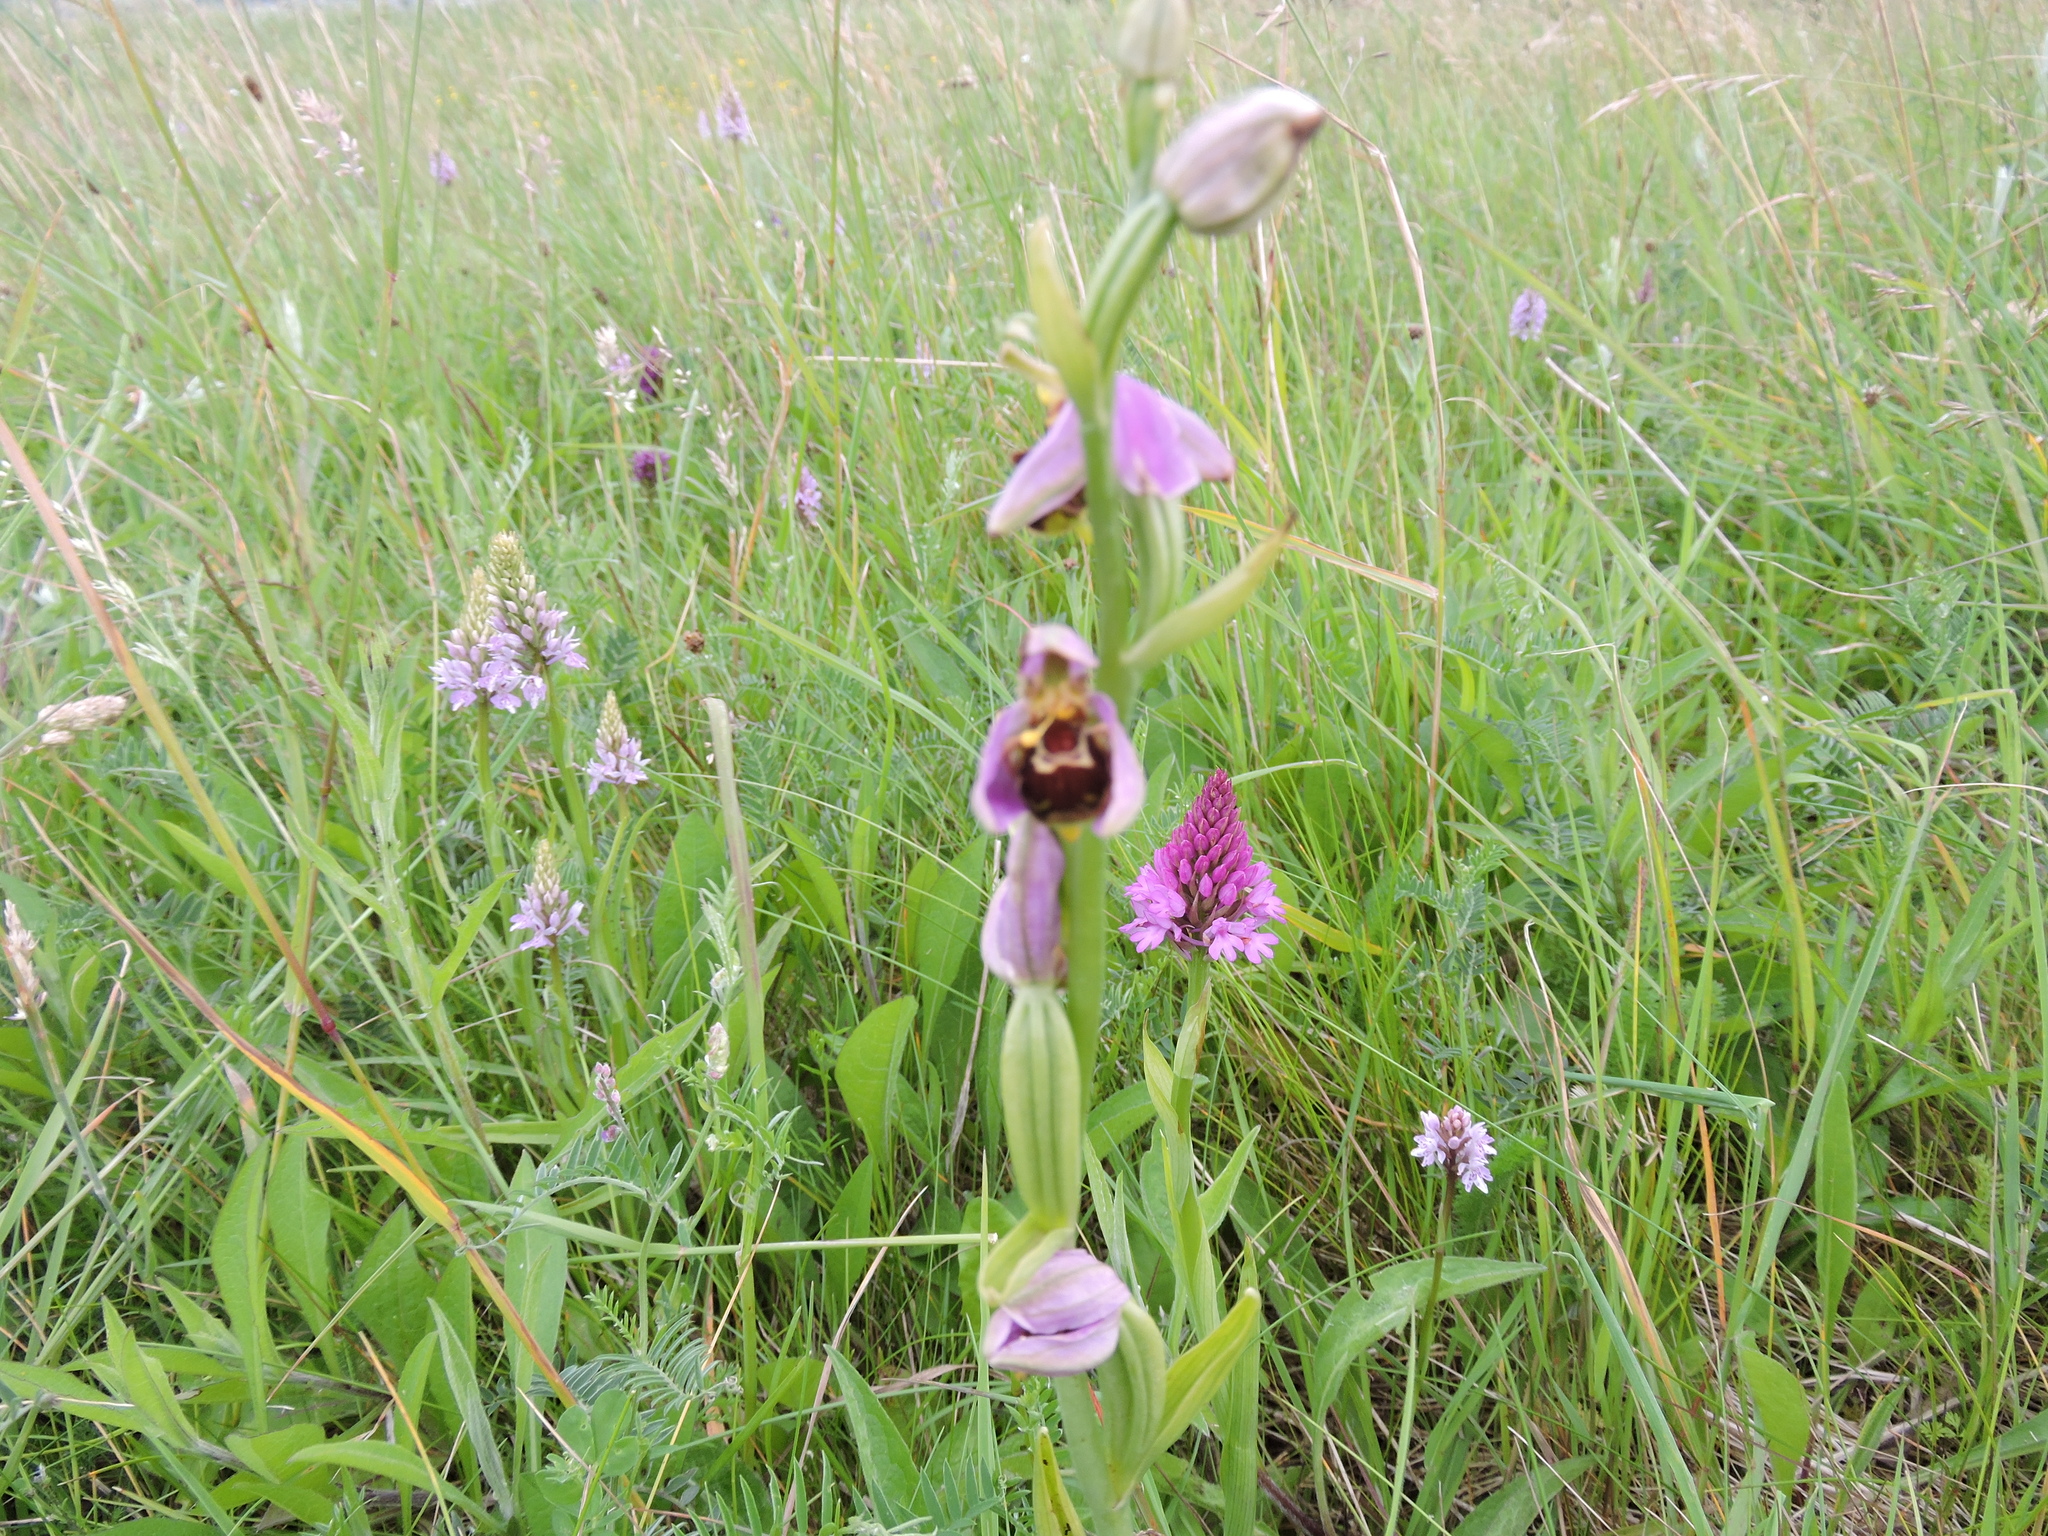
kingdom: Plantae
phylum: Tracheophyta
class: Liliopsida
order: Asparagales
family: Orchidaceae
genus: Ophrys
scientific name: Ophrys apifera
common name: Bee orchid
